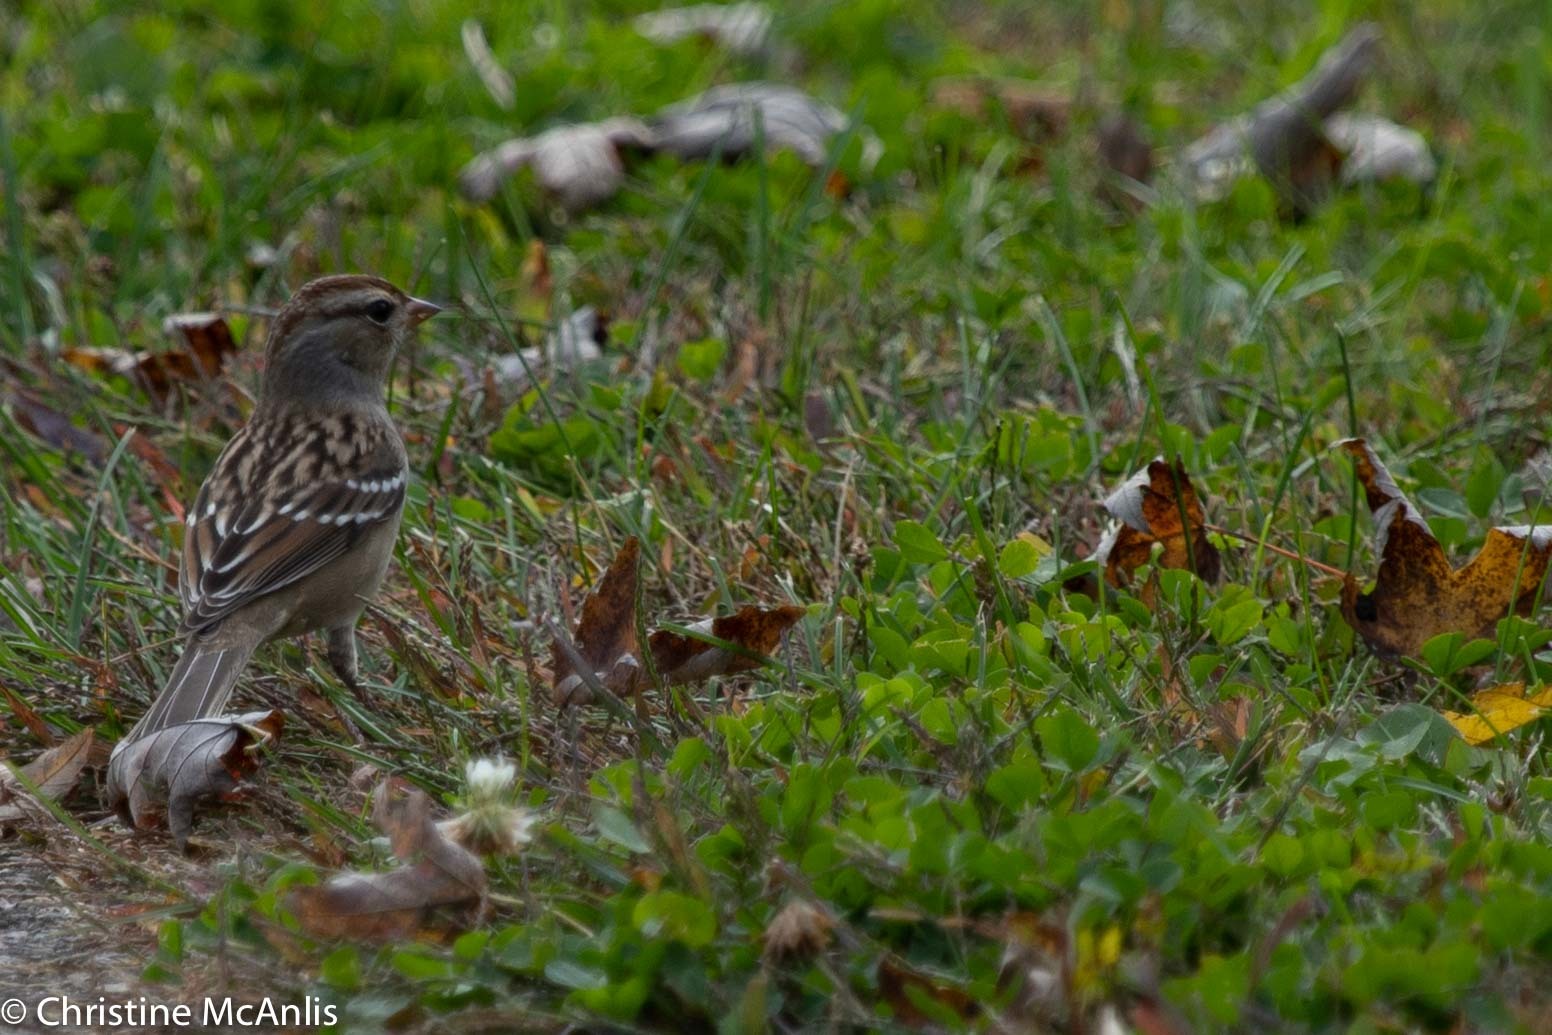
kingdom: Animalia
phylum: Chordata
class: Aves
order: Passeriformes
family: Passerellidae
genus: Zonotrichia
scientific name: Zonotrichia leucophrys
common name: White-crowned sparrow
